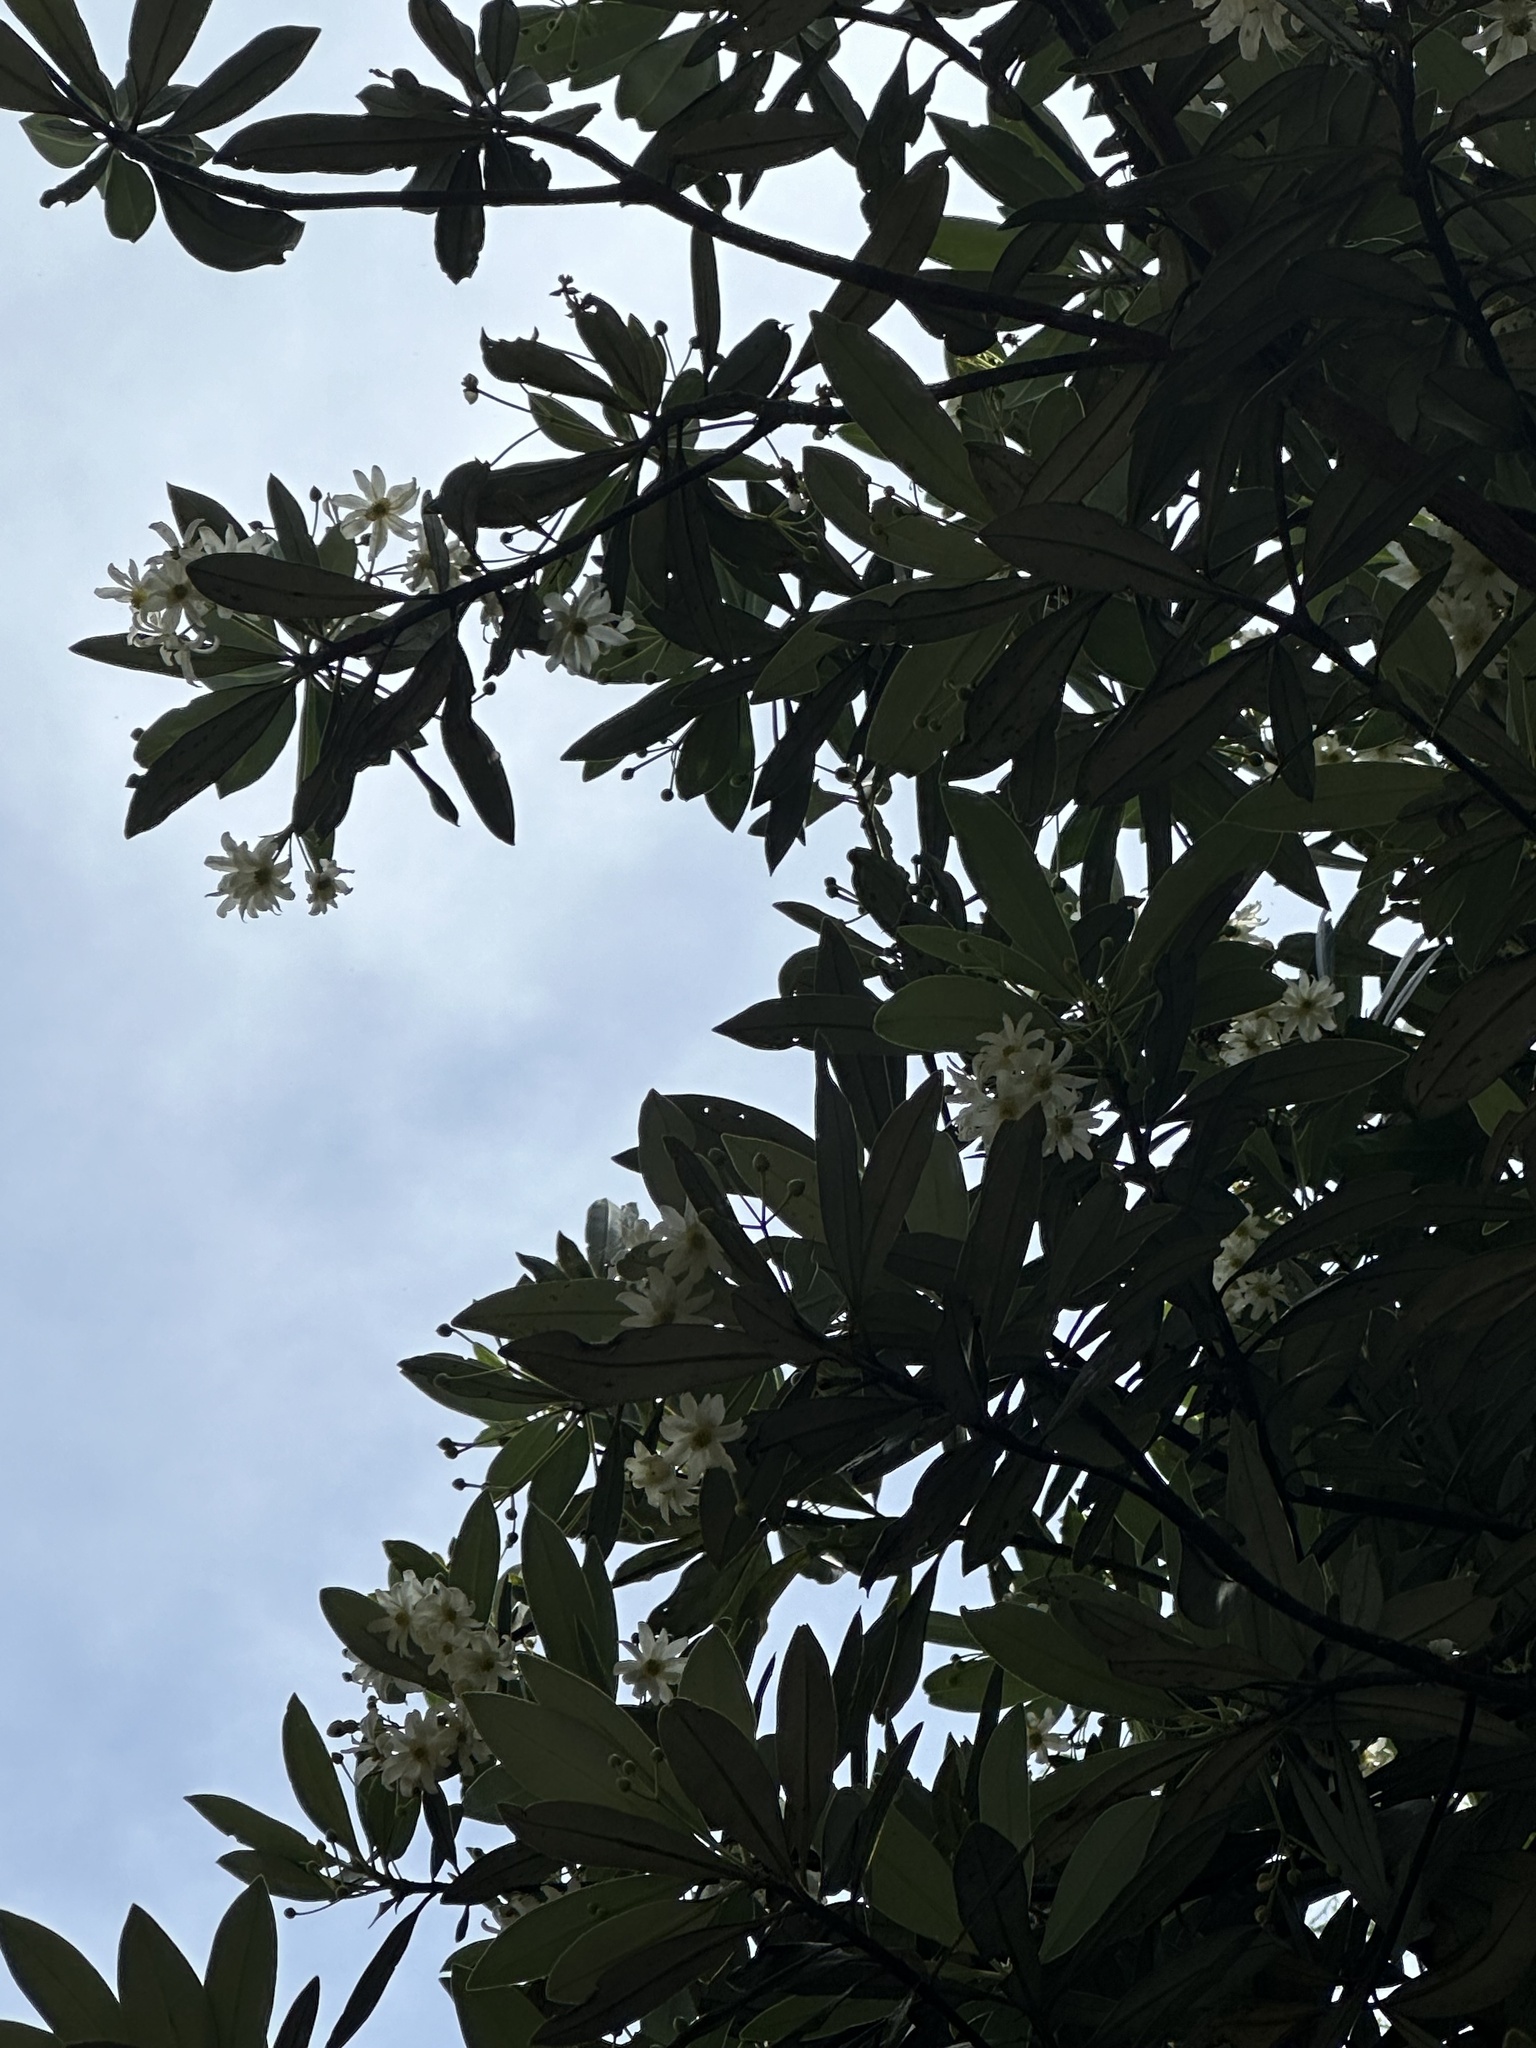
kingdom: Plantae
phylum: Tracheophyta
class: Magnoliopsida
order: Canellales
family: Winteraceae
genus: Drimys
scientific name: Drimys granadensis
